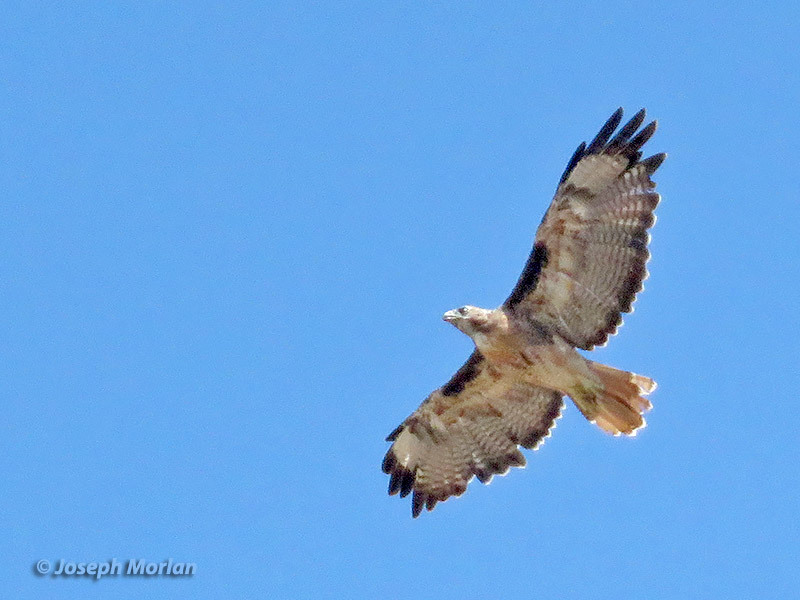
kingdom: Animalia
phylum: Chordata
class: Aves
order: Accipitriformes
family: Accipitridae
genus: Buteo
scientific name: Buteo jamaicensis
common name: Red-tailed hawk
